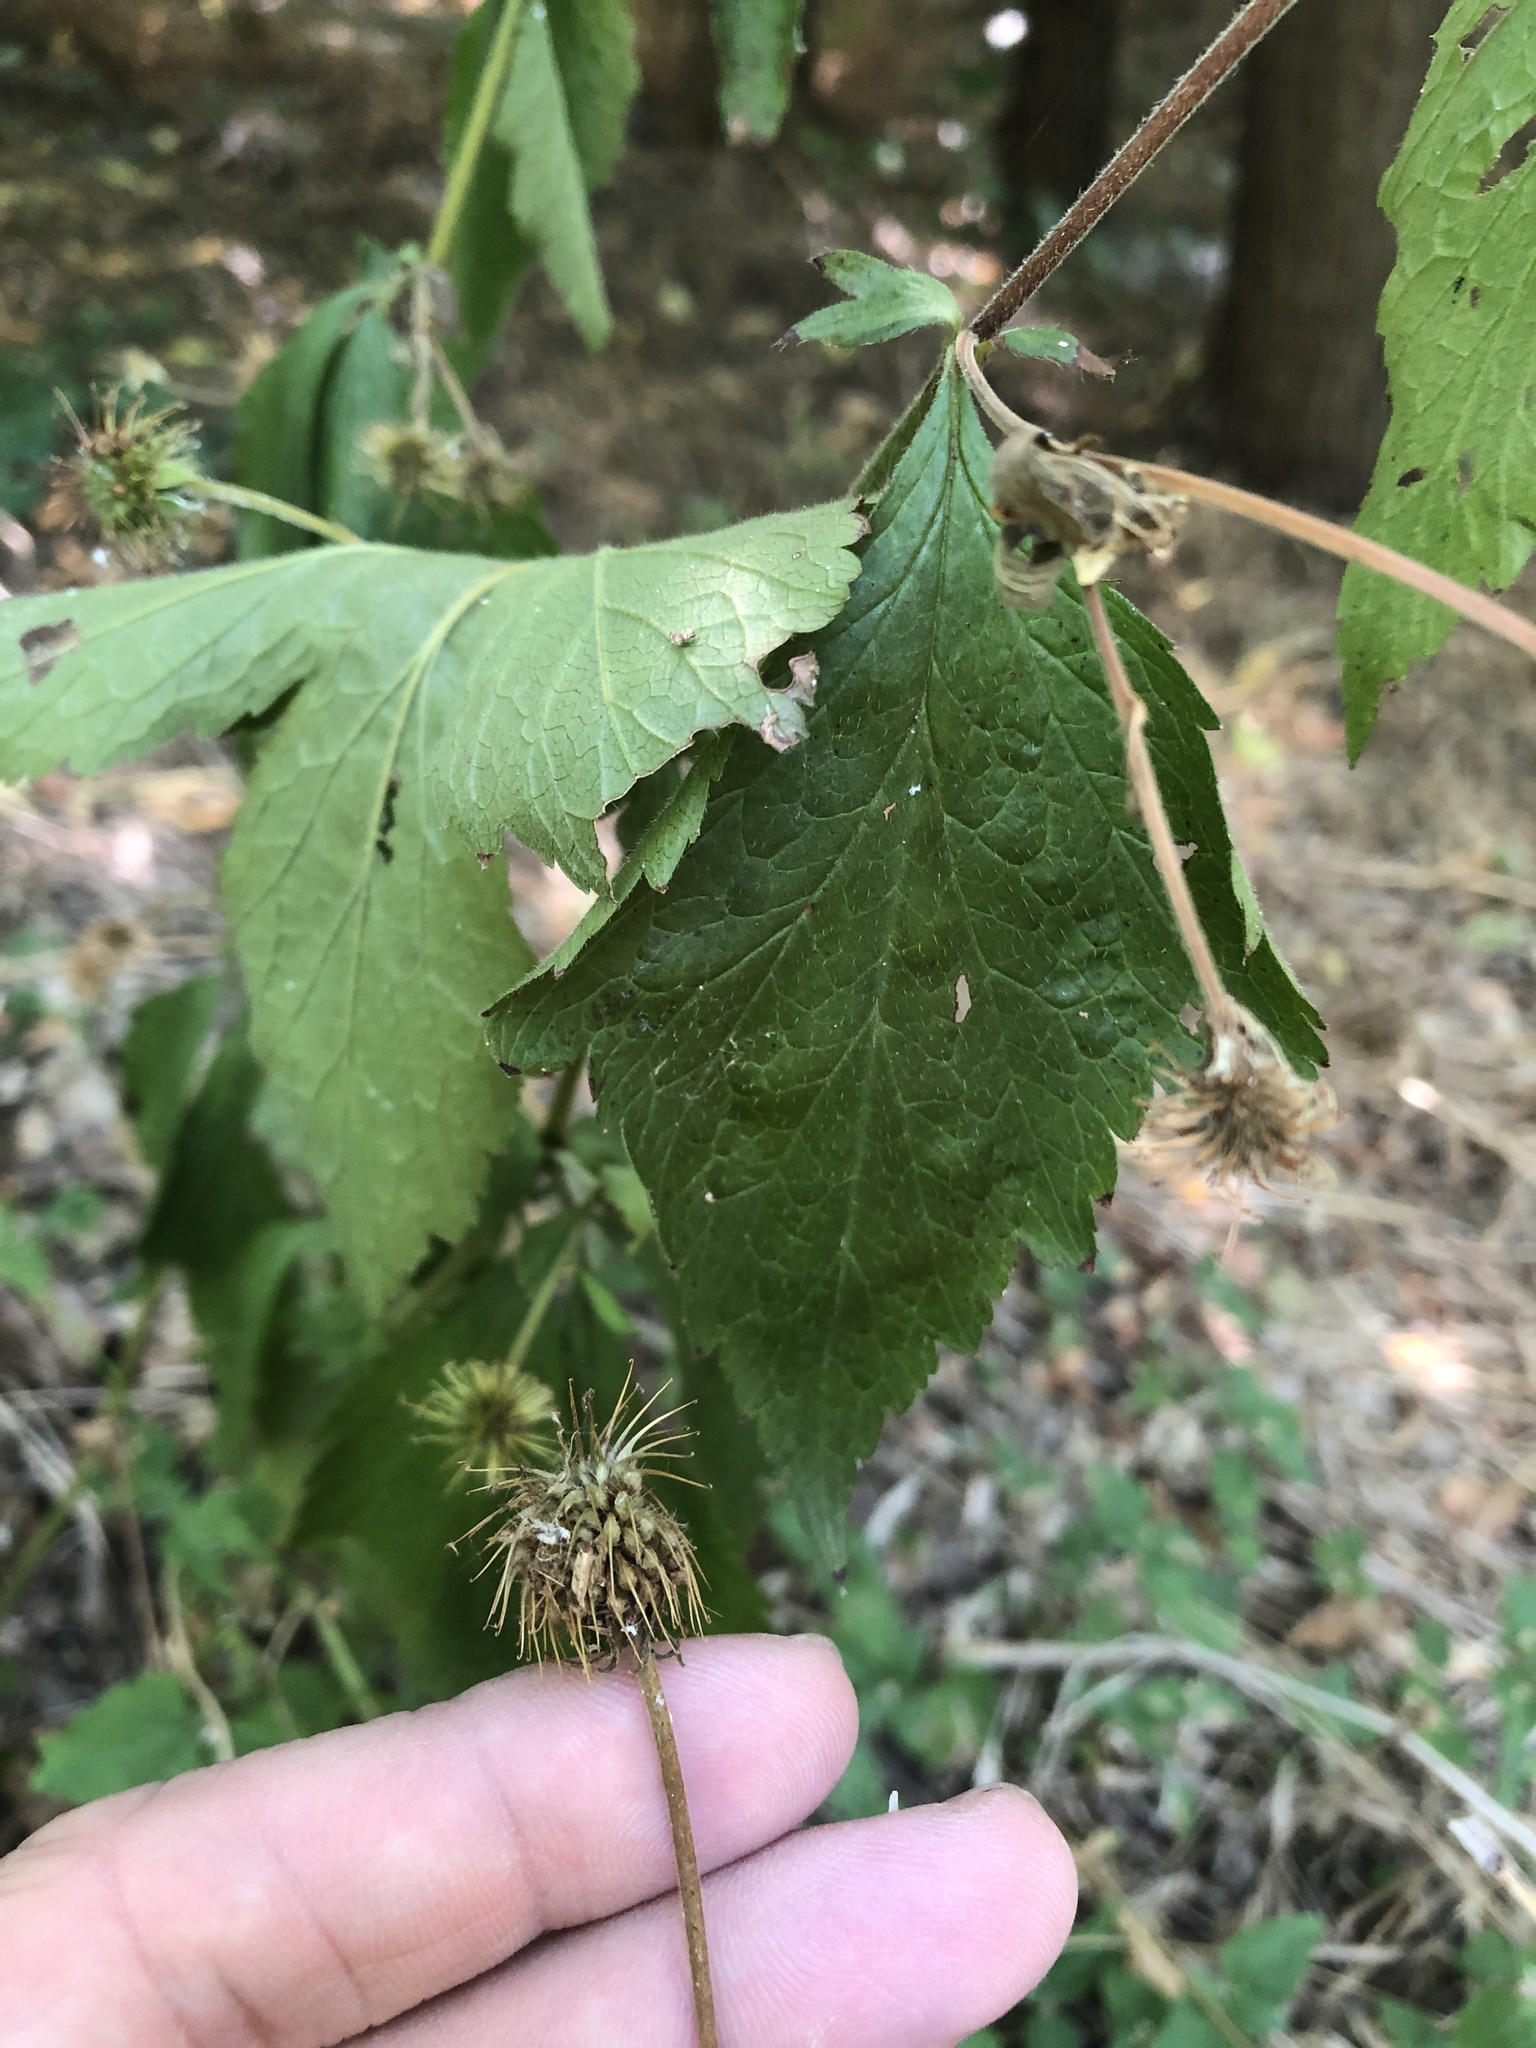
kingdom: Plantae
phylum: Tracheophyta
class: Magnoliopsida
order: Rosales
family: Rosaceae
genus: Geum
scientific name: Geum canadense
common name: White avens
